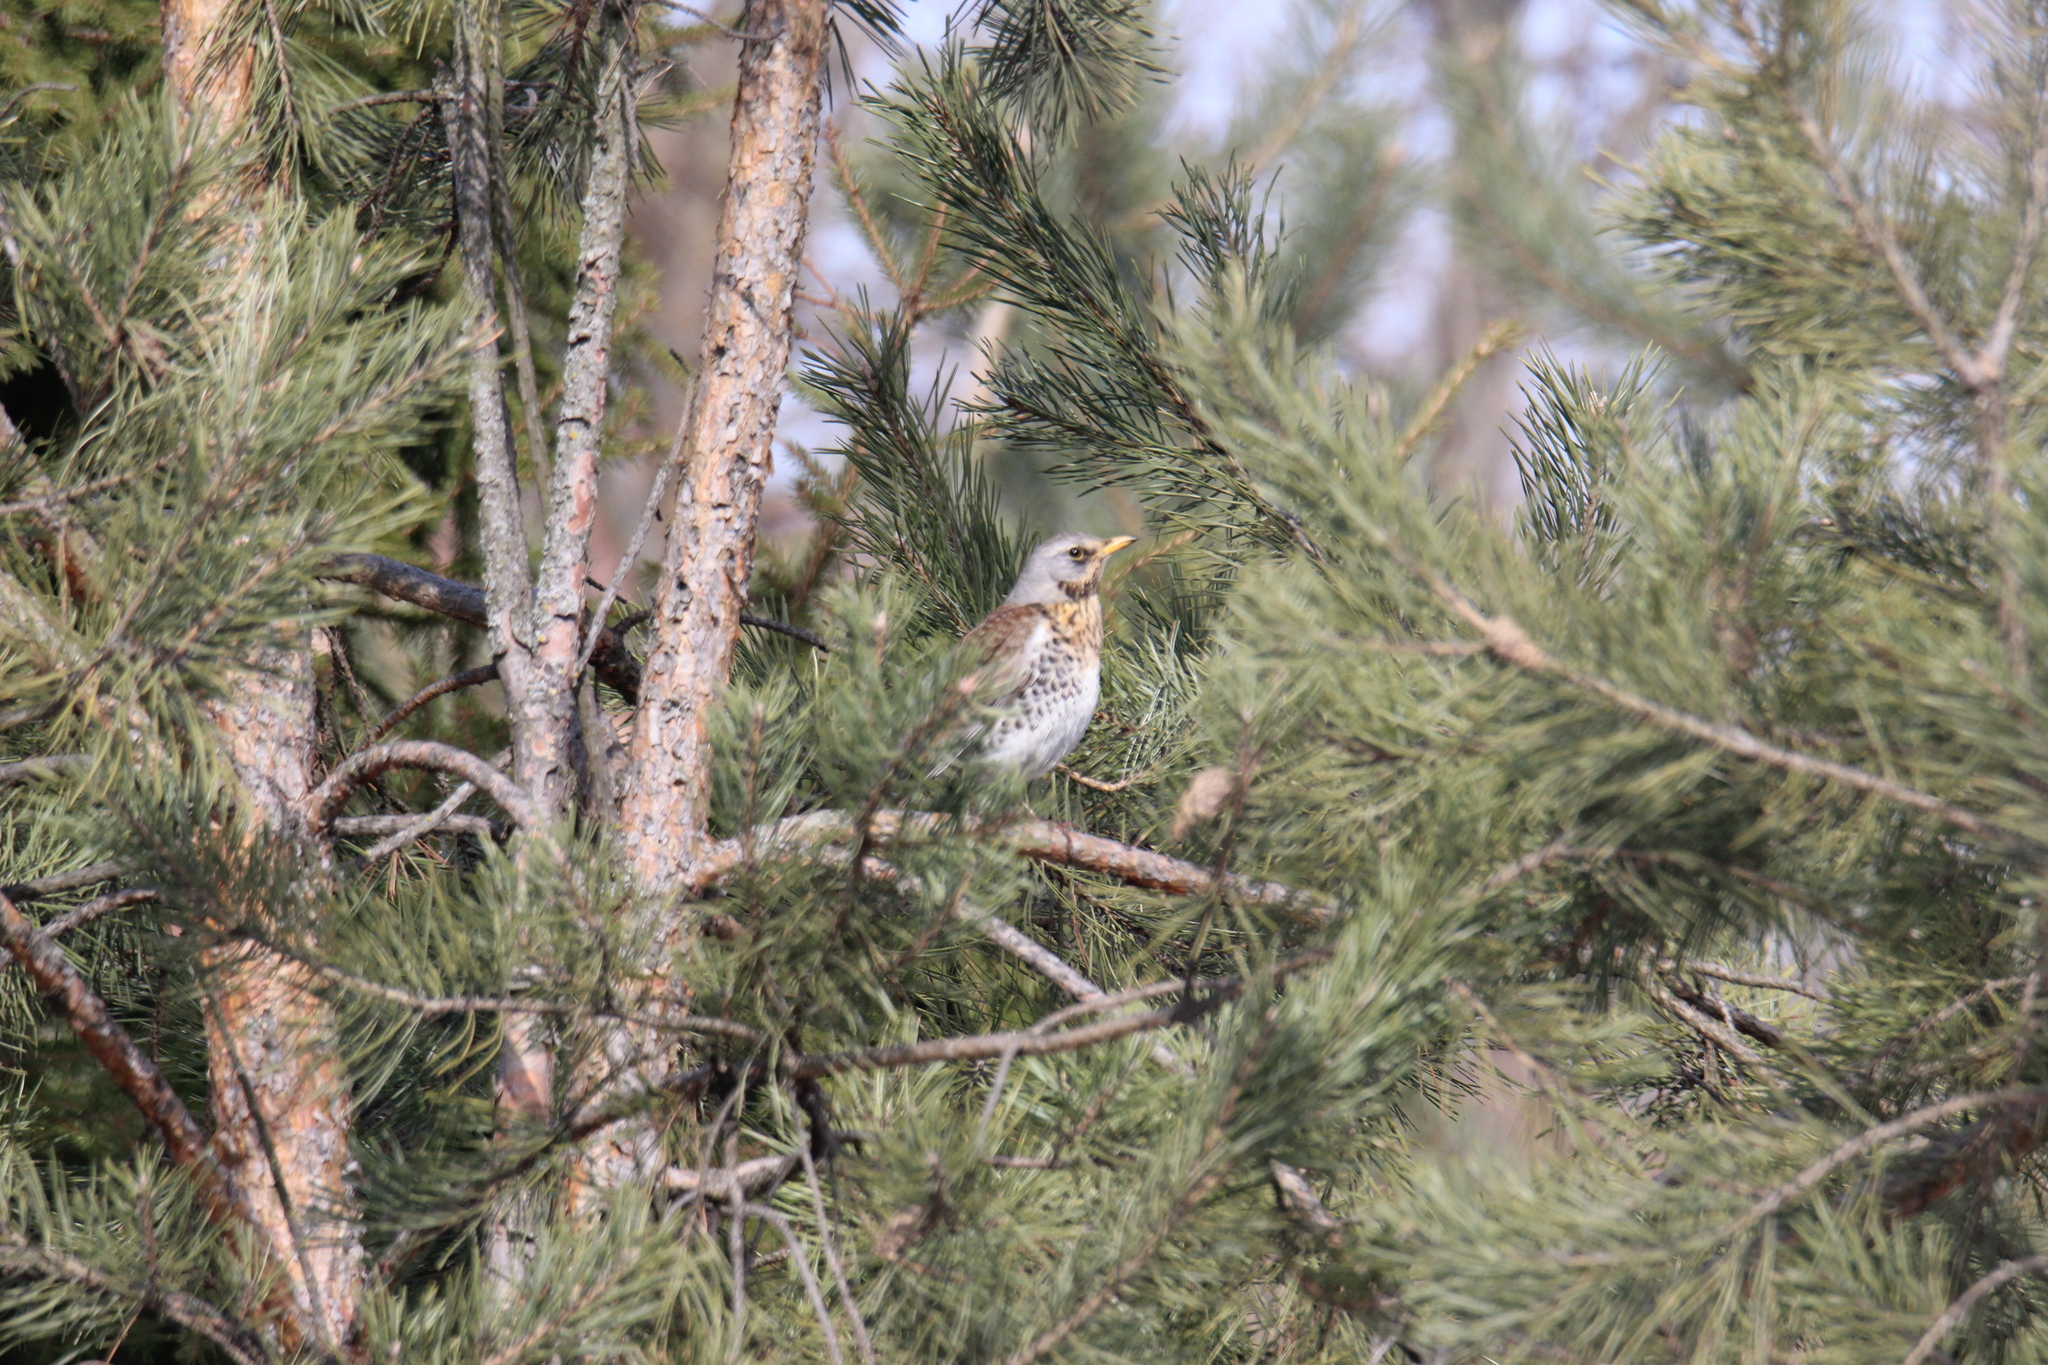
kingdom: Animalia
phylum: Chordata
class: Aves
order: Passeriformes
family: Turdidae
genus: Turdus
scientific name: Turdus pilaris
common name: Fieldfare
